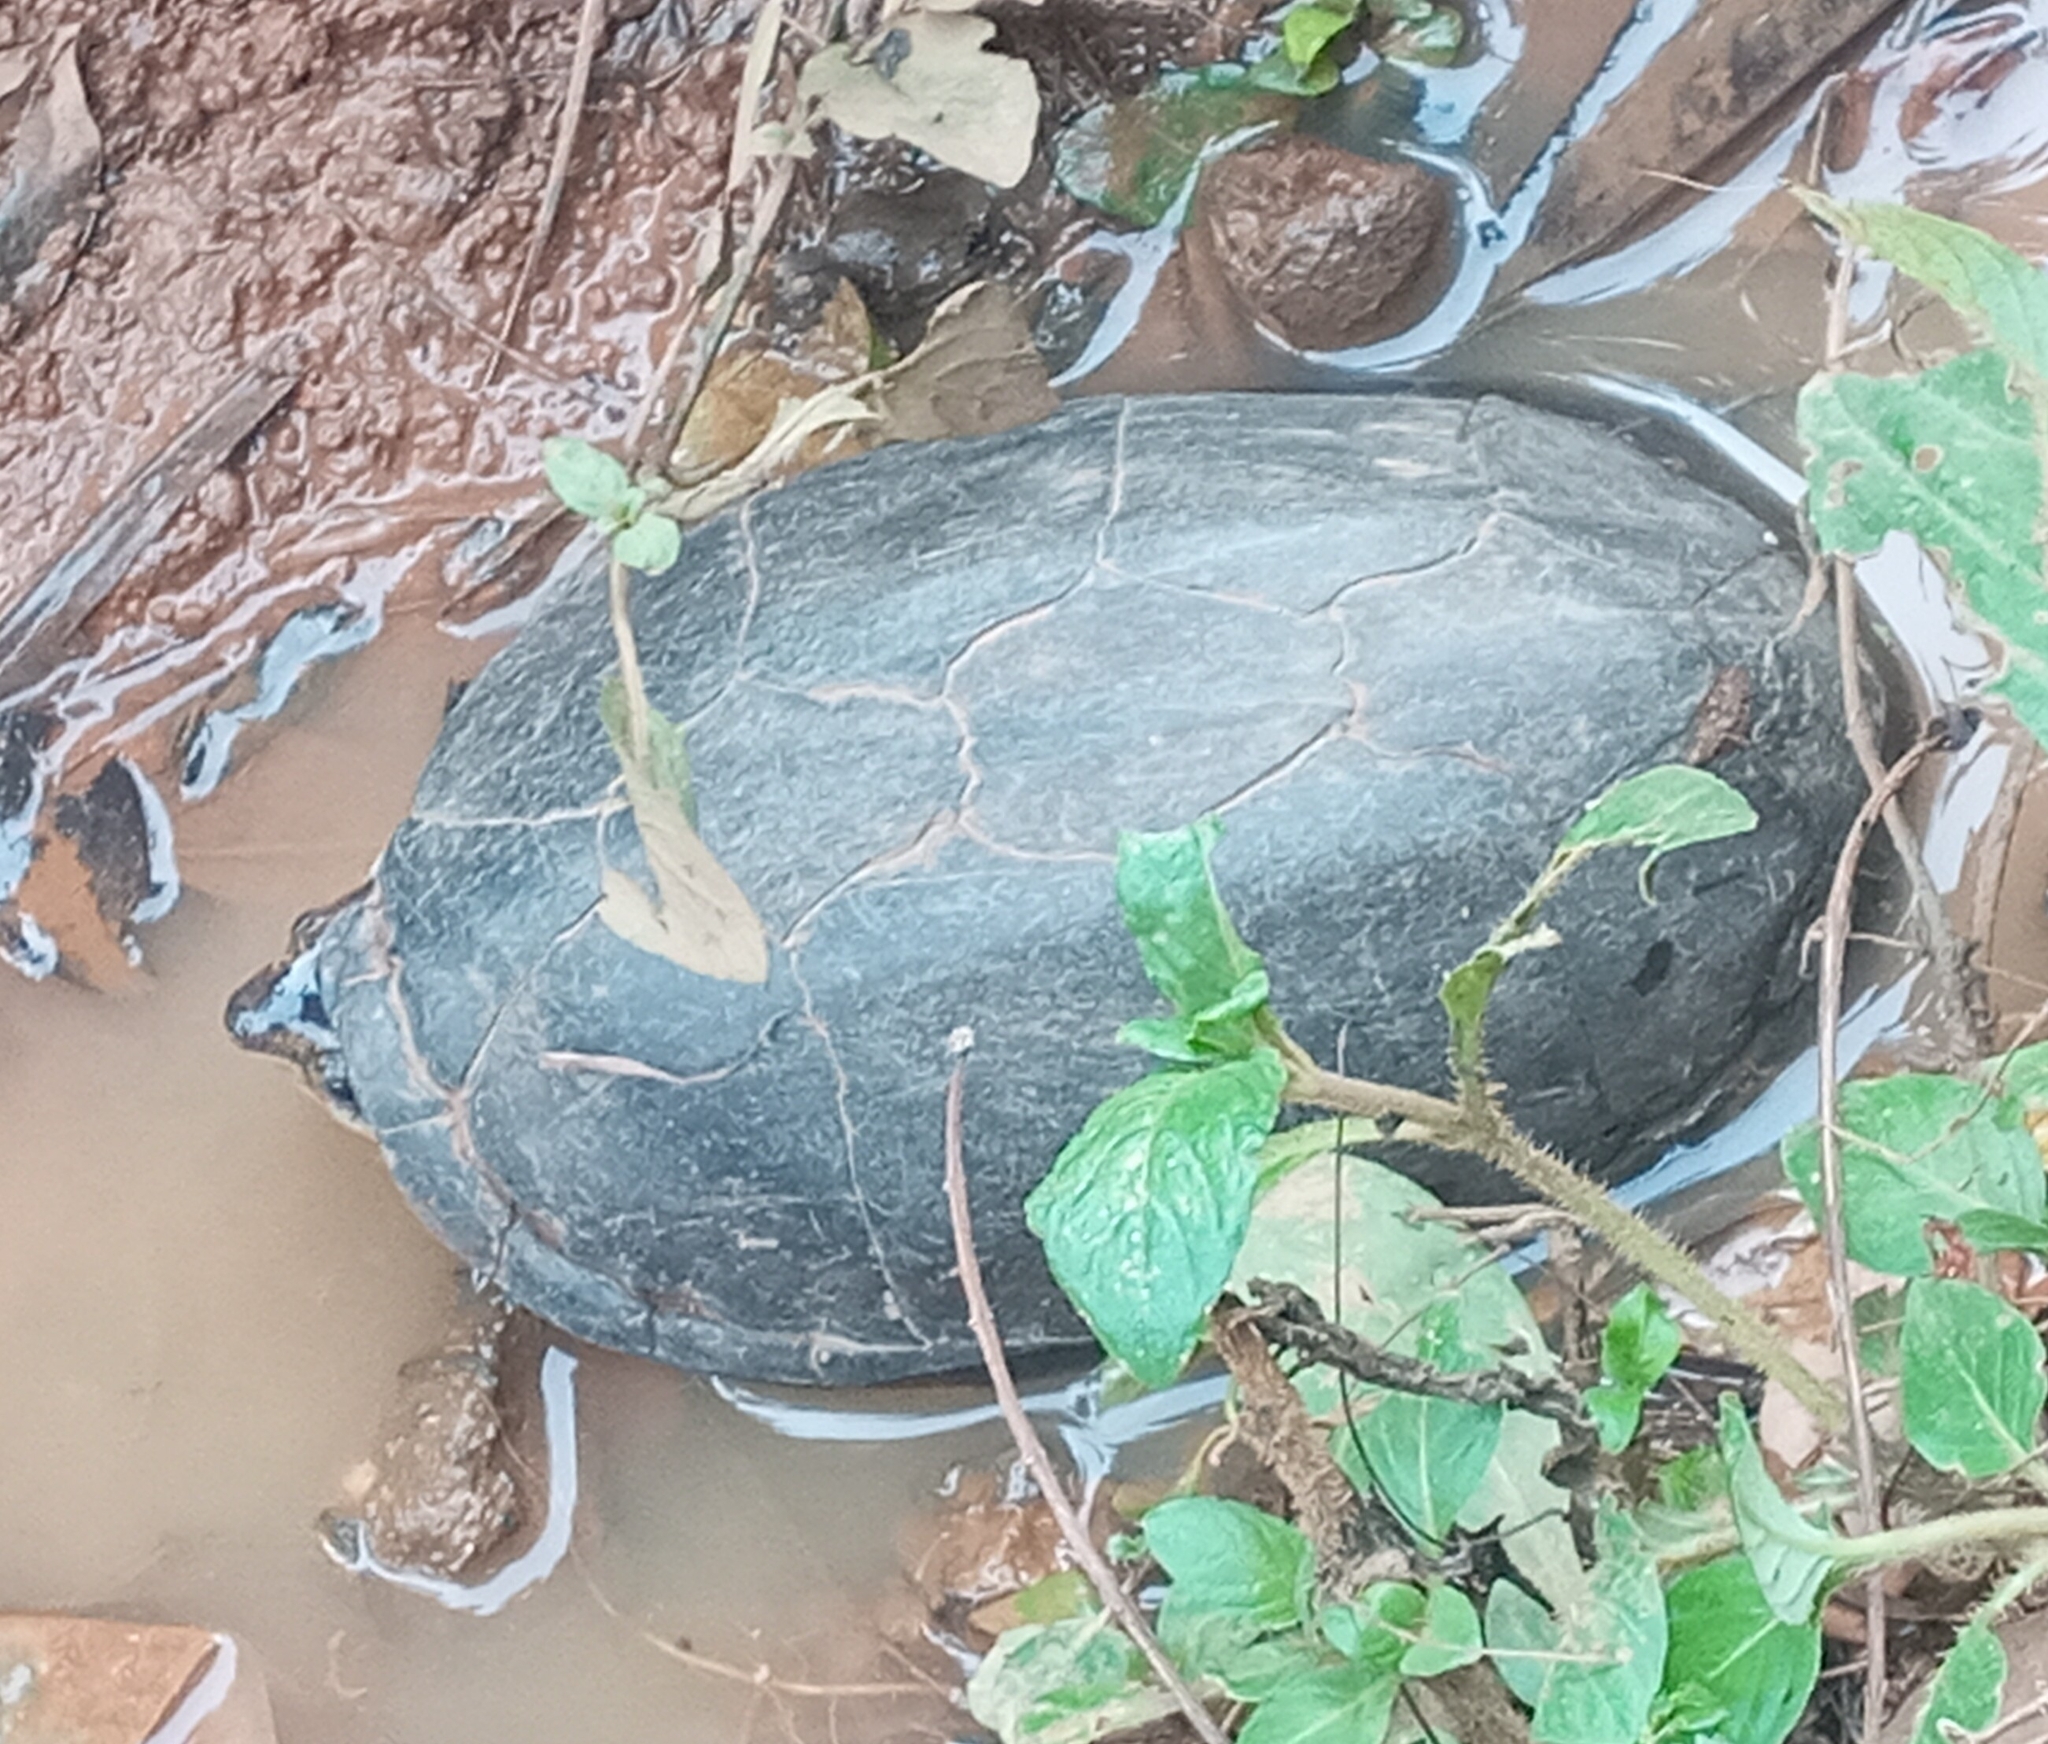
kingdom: Animalia
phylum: Chordata
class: Testudines
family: Kinosternidae
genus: Kinosternon
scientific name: Kinosternon leucostomum
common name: White-lipped mud turtle
